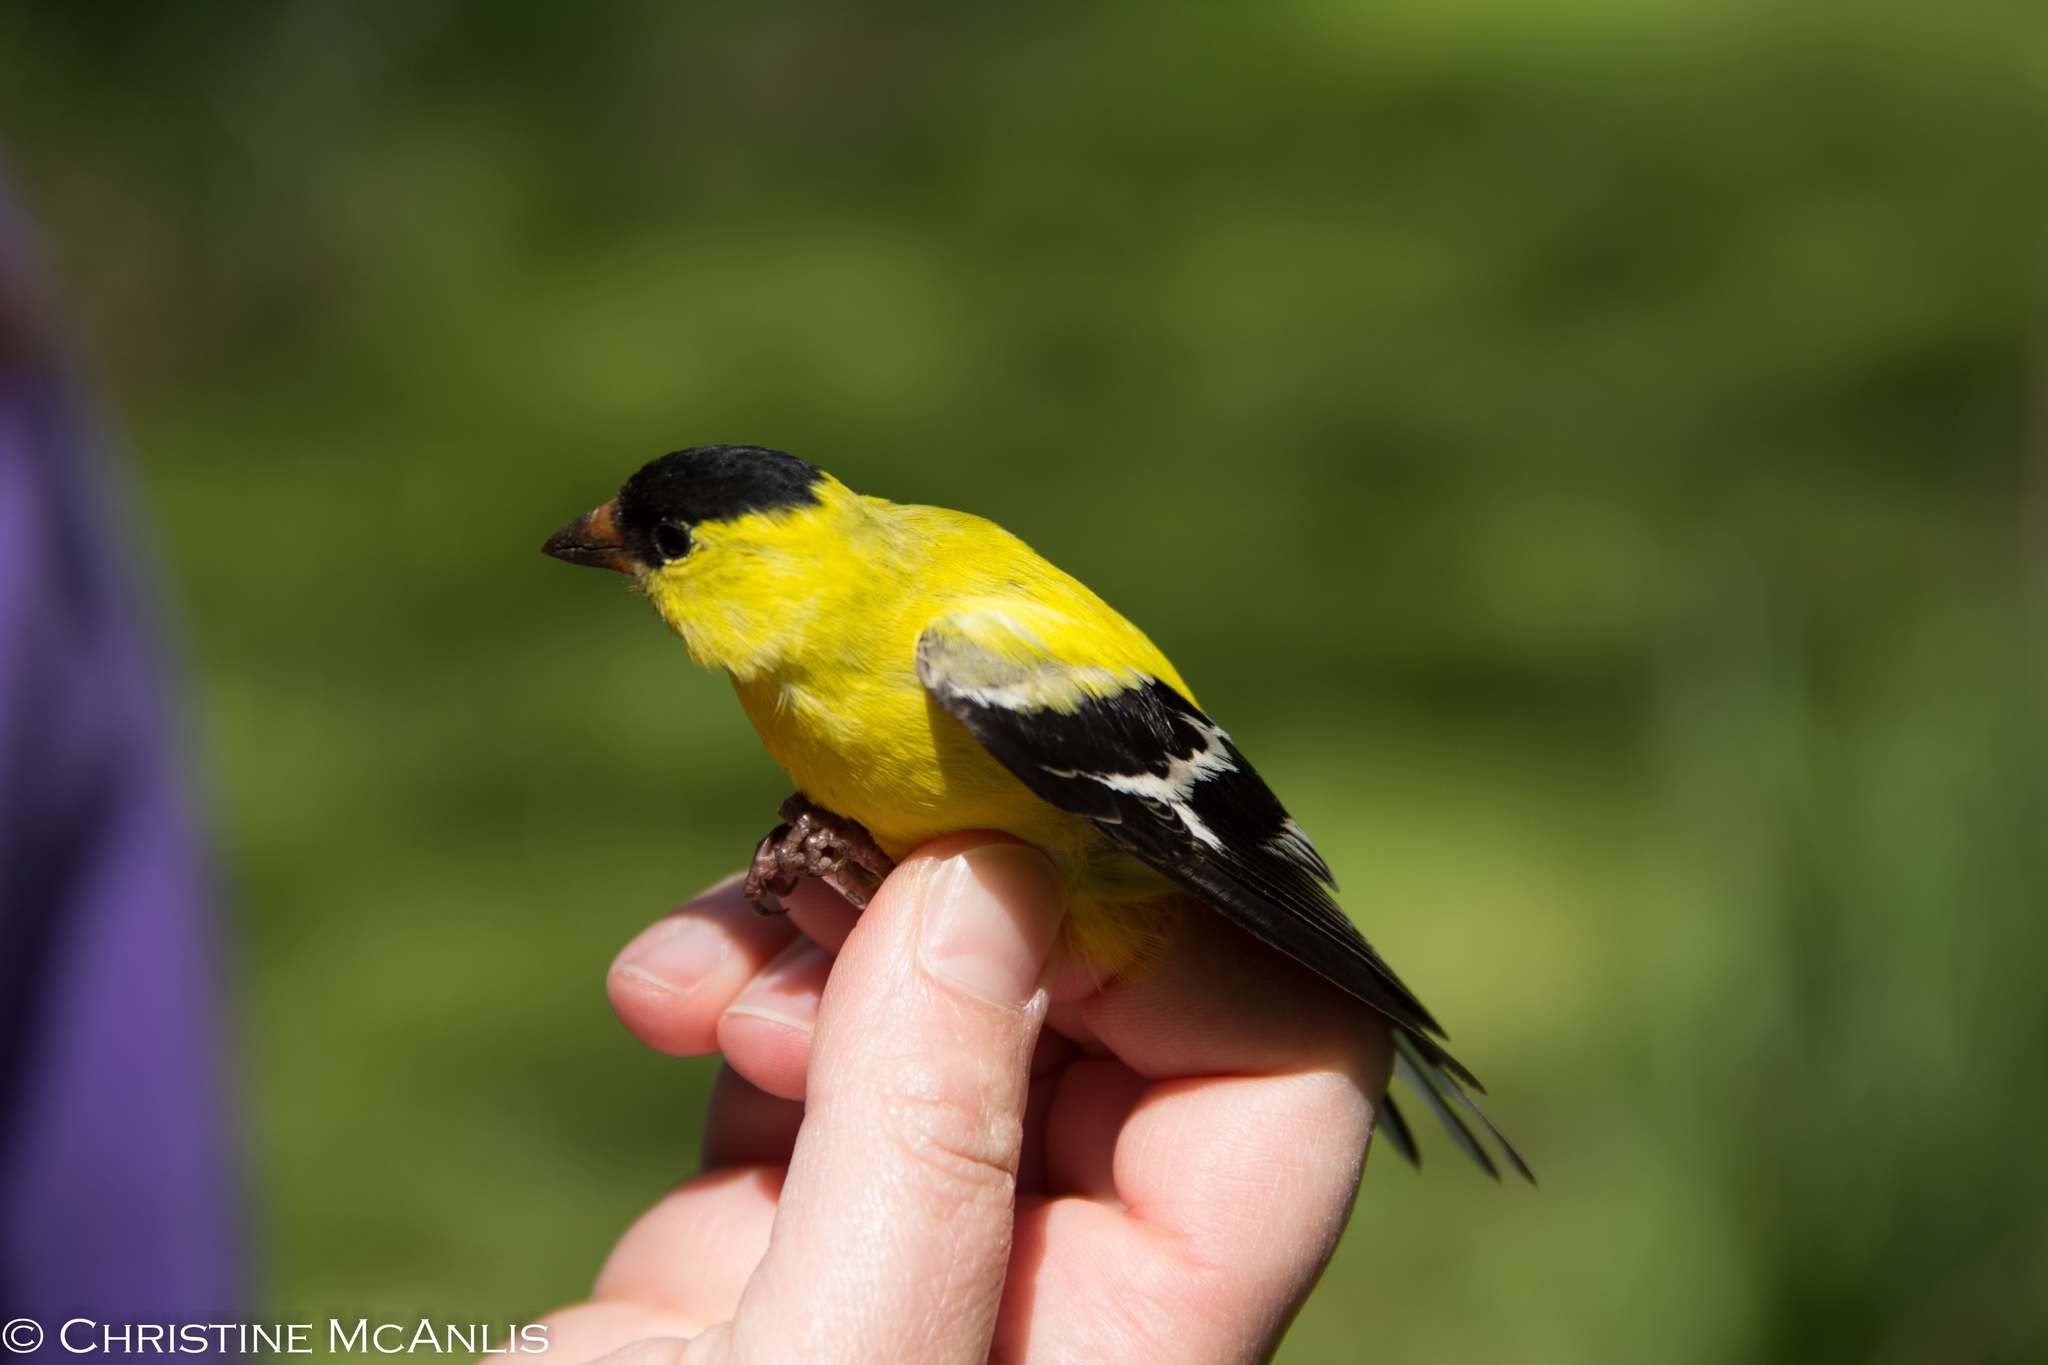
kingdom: Animalia
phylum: Chordata
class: Aves
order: Passeriformes
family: Fringillidae
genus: Spinus
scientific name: Spinus tristis
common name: American goldfinch
